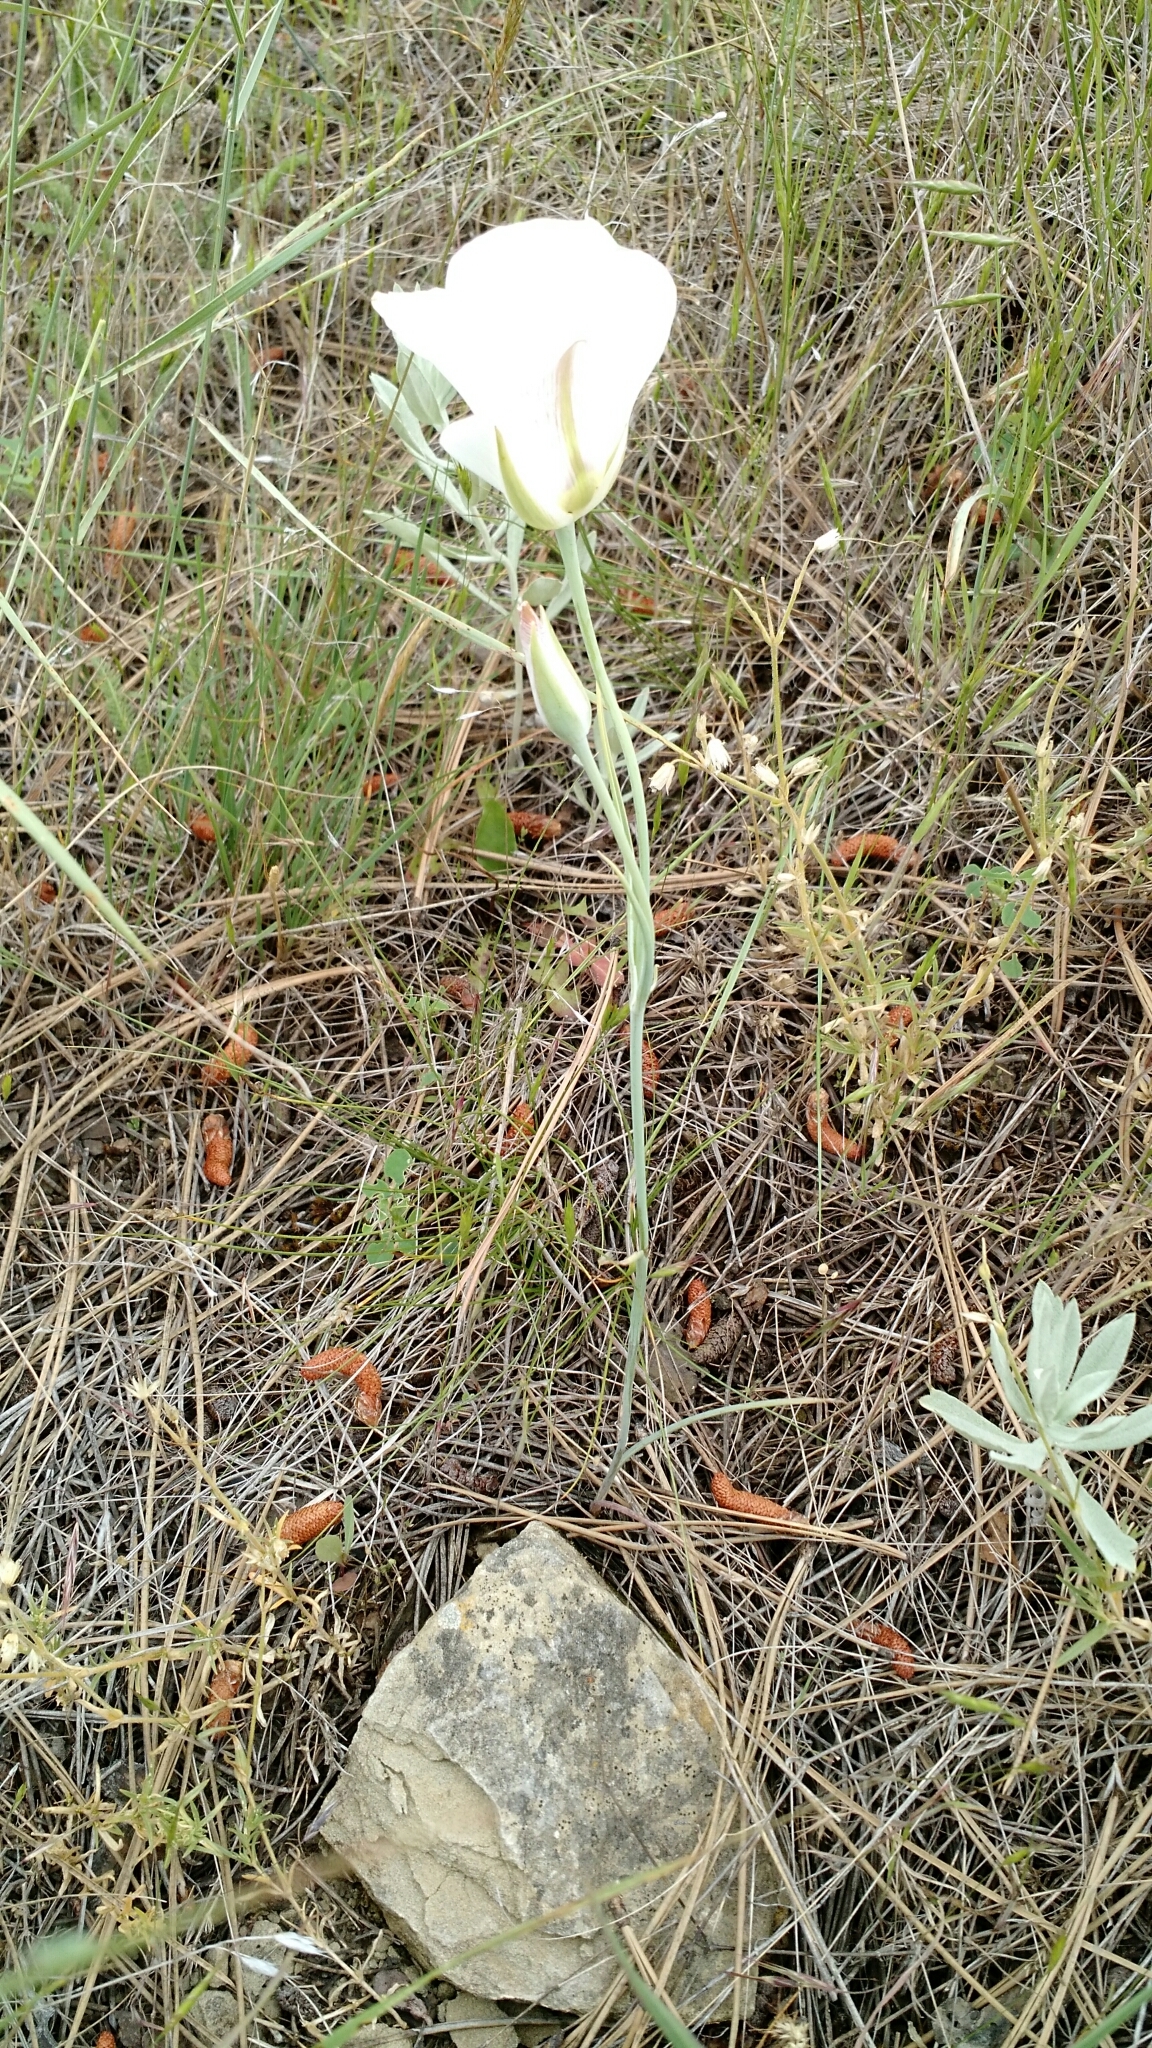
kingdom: Plantae
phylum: Tracheophyta
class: Liliopsida
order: Liliales
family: Liliaceae
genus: Calochortus
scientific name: Calochortus nuttallii
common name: Sego-lily
